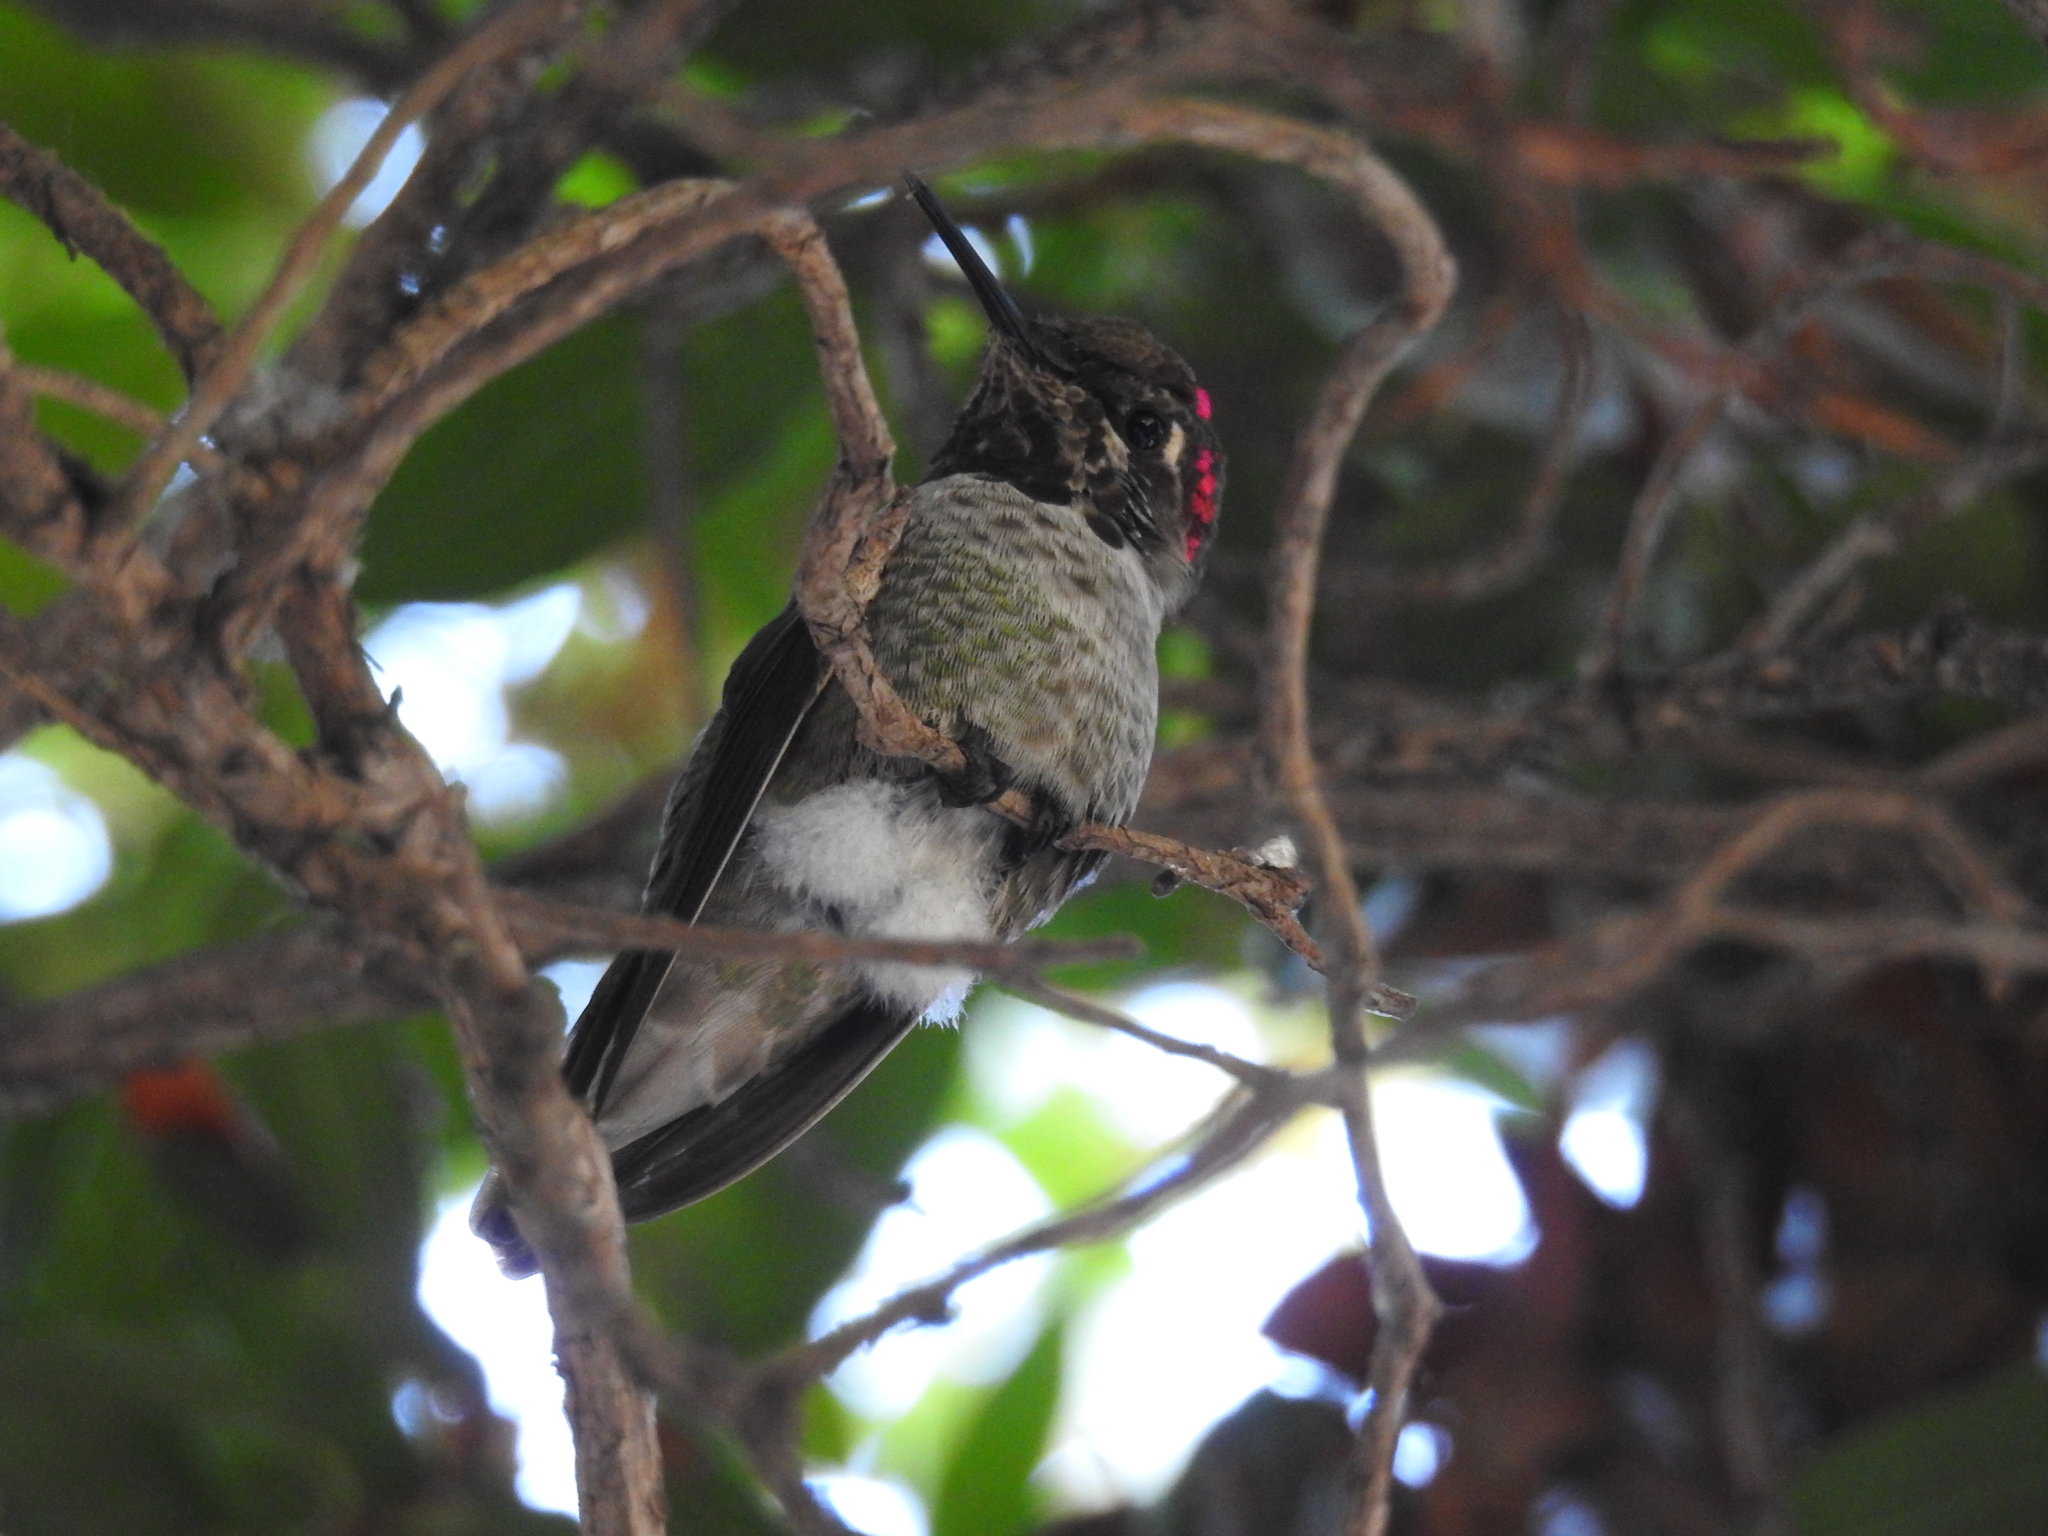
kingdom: Animalia
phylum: Chordata
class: Aves
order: Apodiformes
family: Trochilidae
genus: Calypte
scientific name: Calypte anna
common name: Anna's hummingbird
